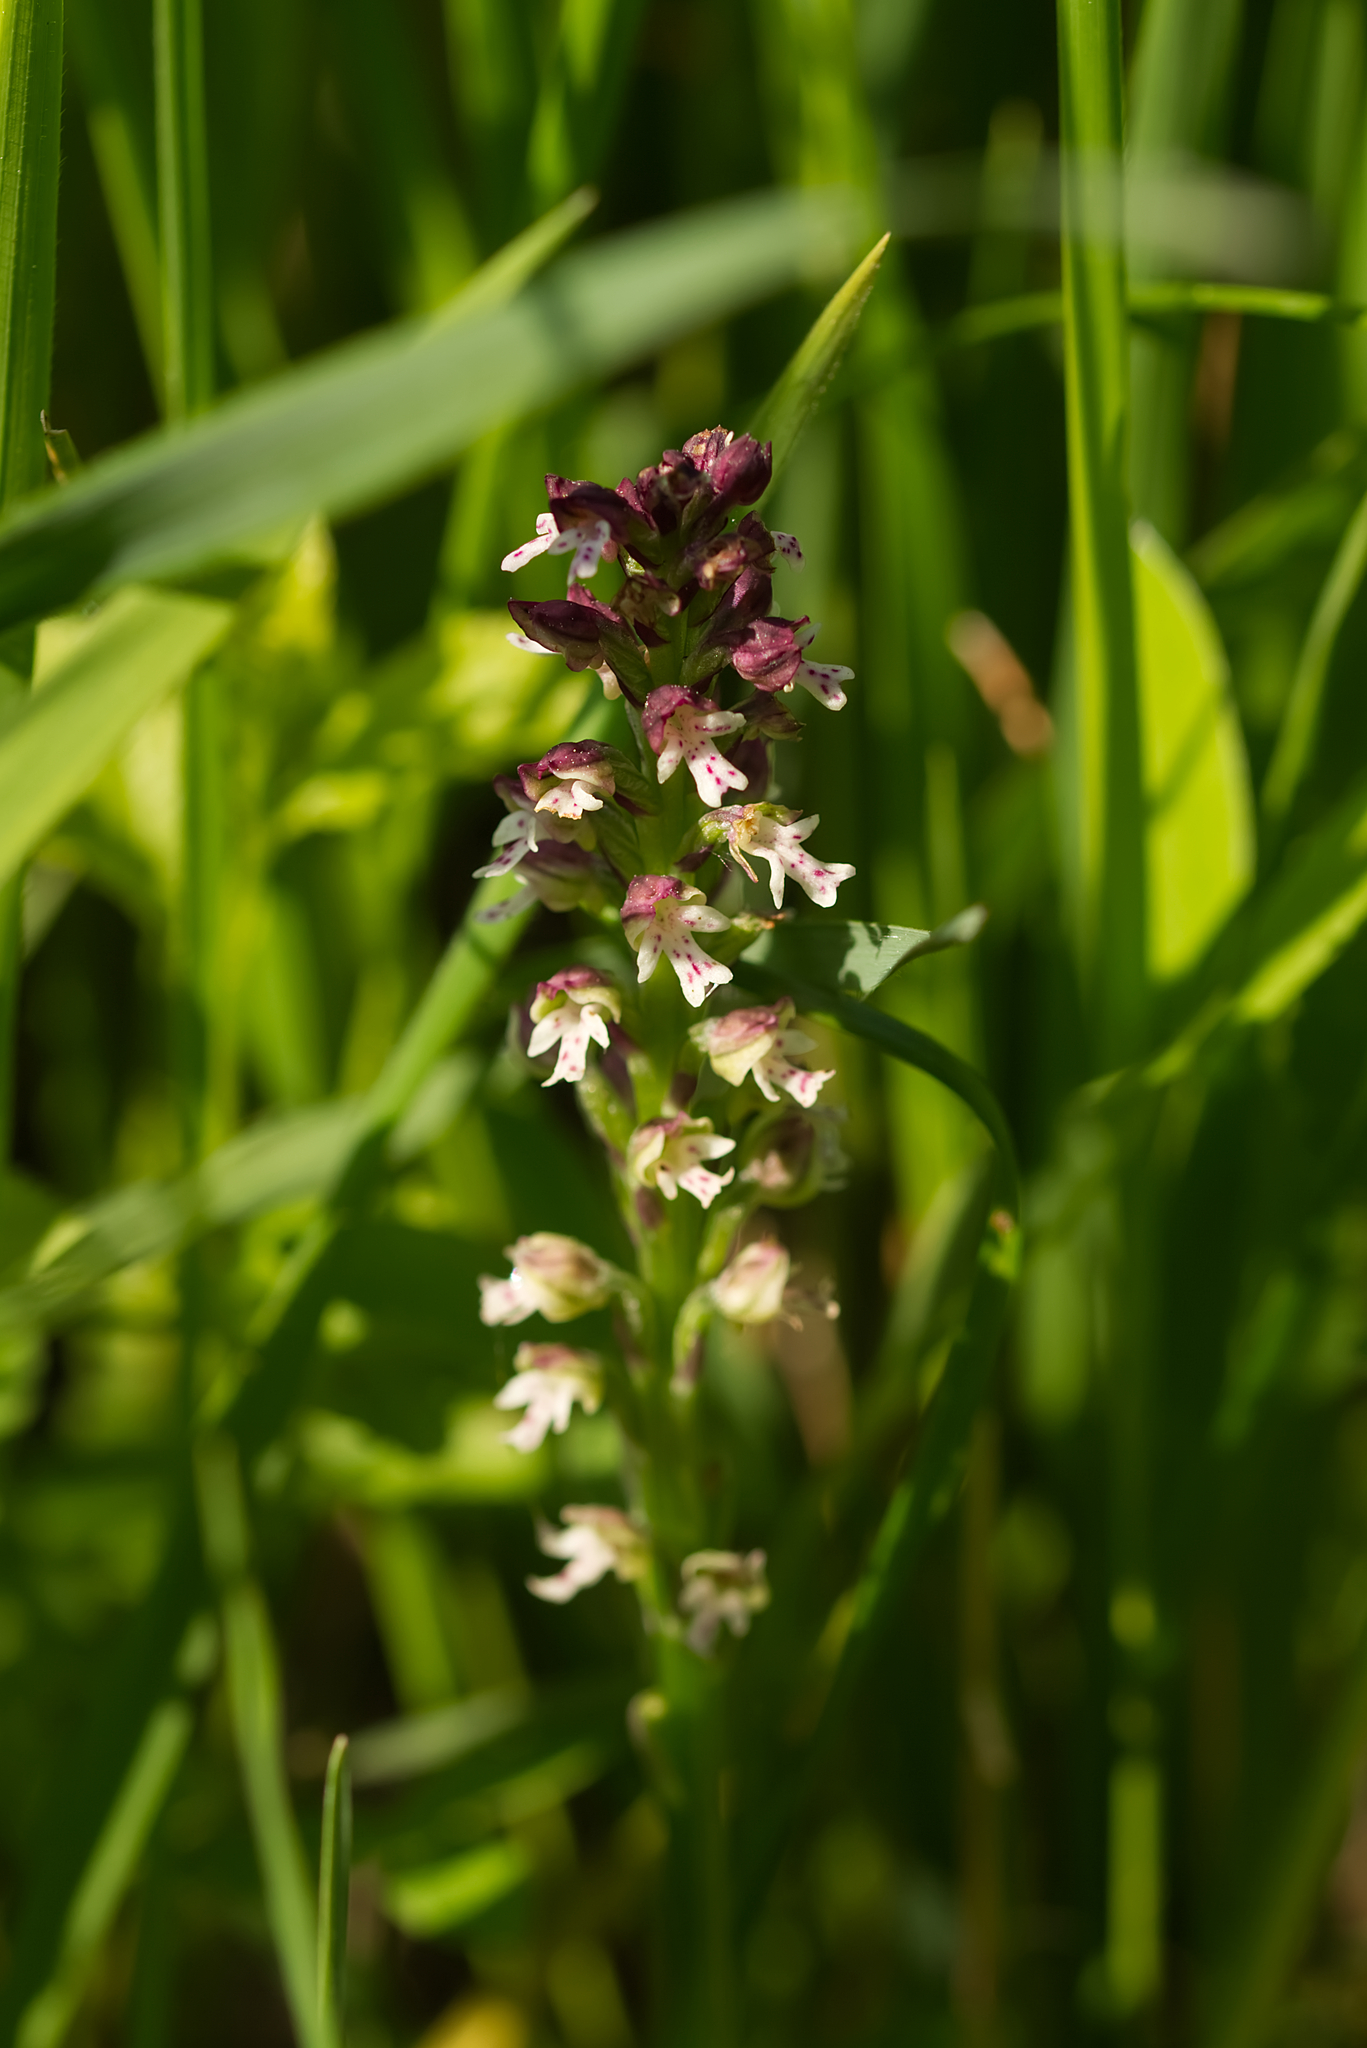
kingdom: Plantae
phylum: Tracheophyta
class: Liliopsida
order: Asparagales
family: Orchidaceae
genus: Neotinea
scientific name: Neotinea ustulata
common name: Burnt orchid
